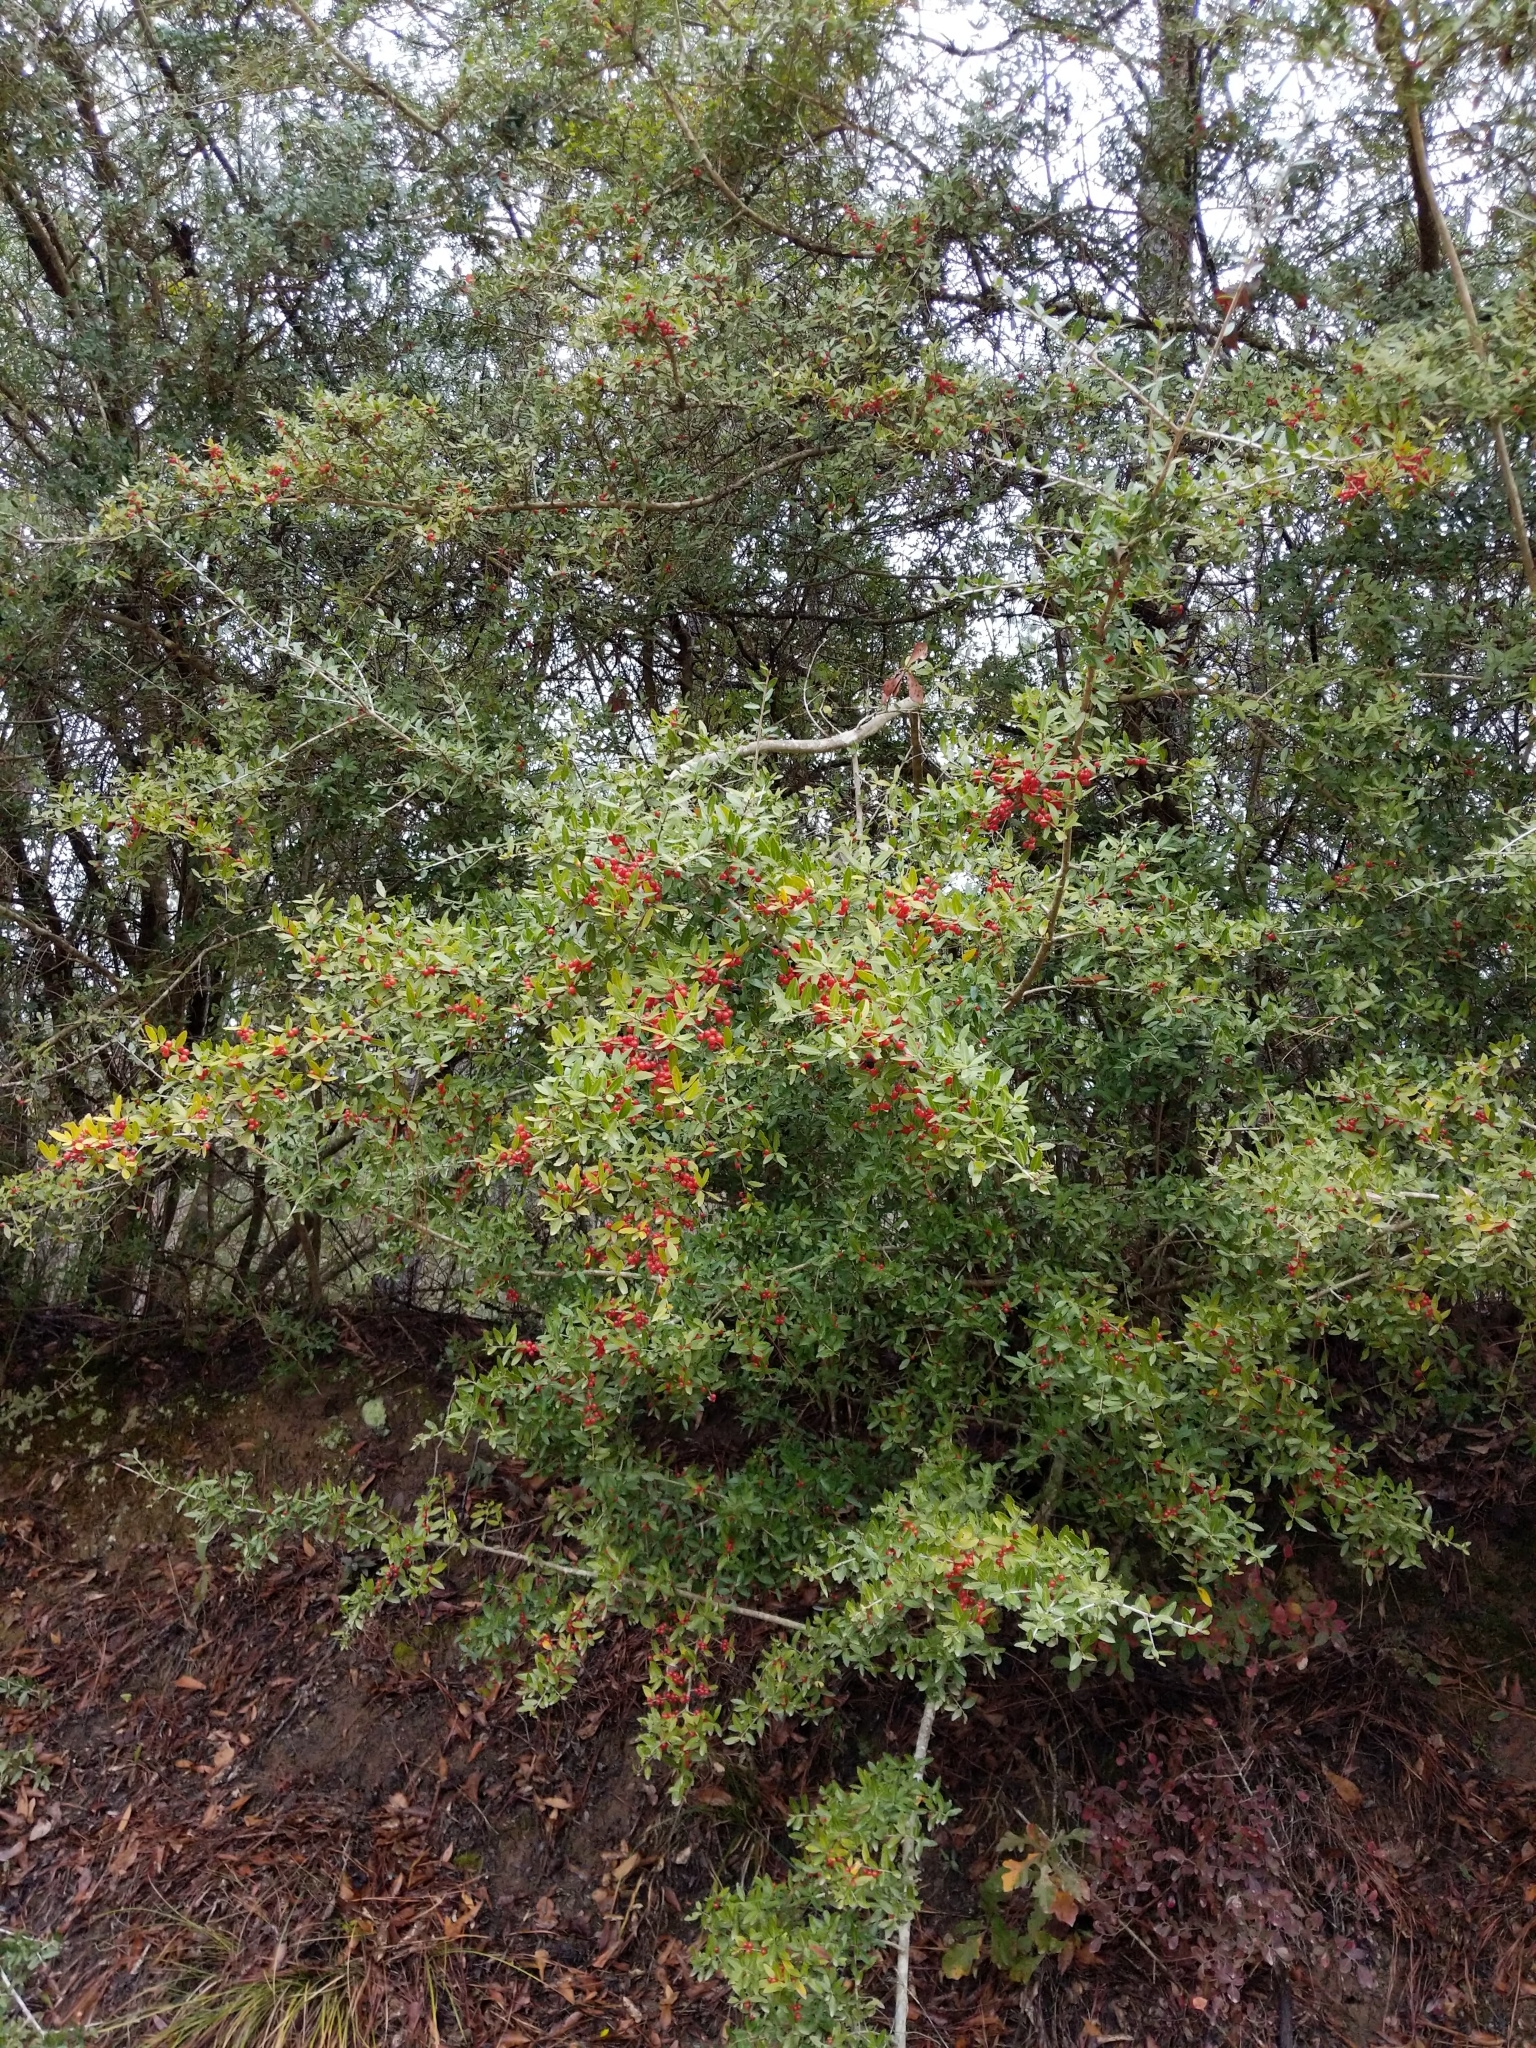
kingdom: Plantae
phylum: Tracheophyta
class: Magnoliopsida
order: Aquifoliales
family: Aquifoliaceae
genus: Ilex
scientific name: Ilex vomitoria
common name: Yaupon holly
